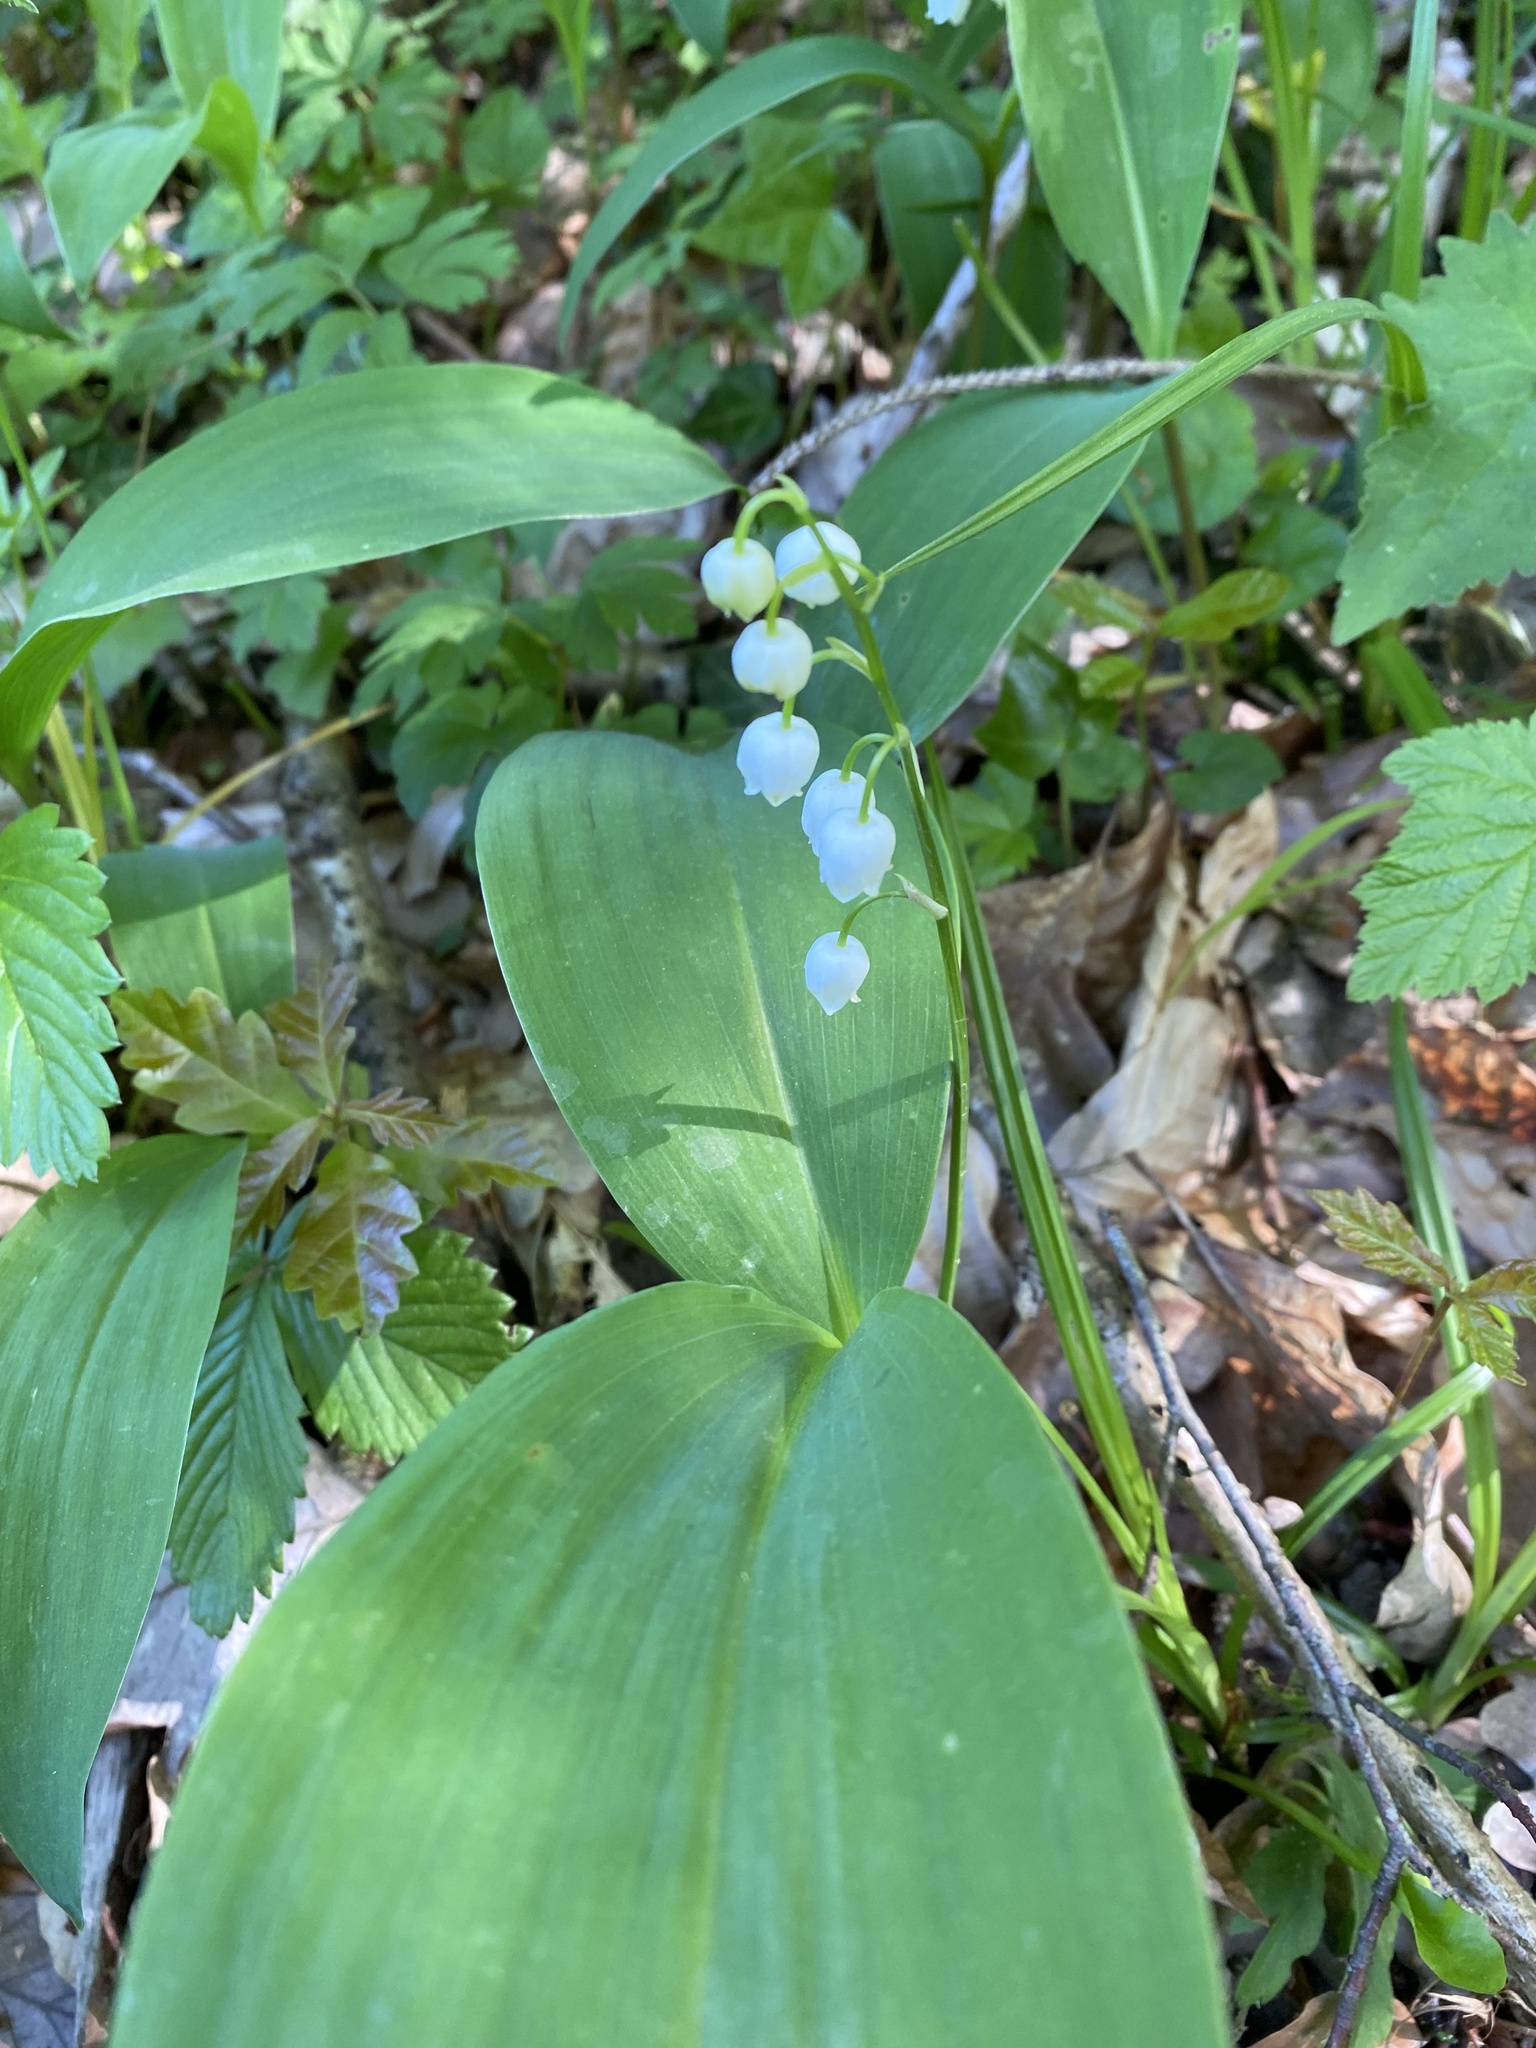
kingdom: Plantae
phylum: Tracheophyta
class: Liliopsida
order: Asparagales
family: Asparagaceae
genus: Convallaria
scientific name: Convallaria majalis
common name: Lily-of-the-valley
